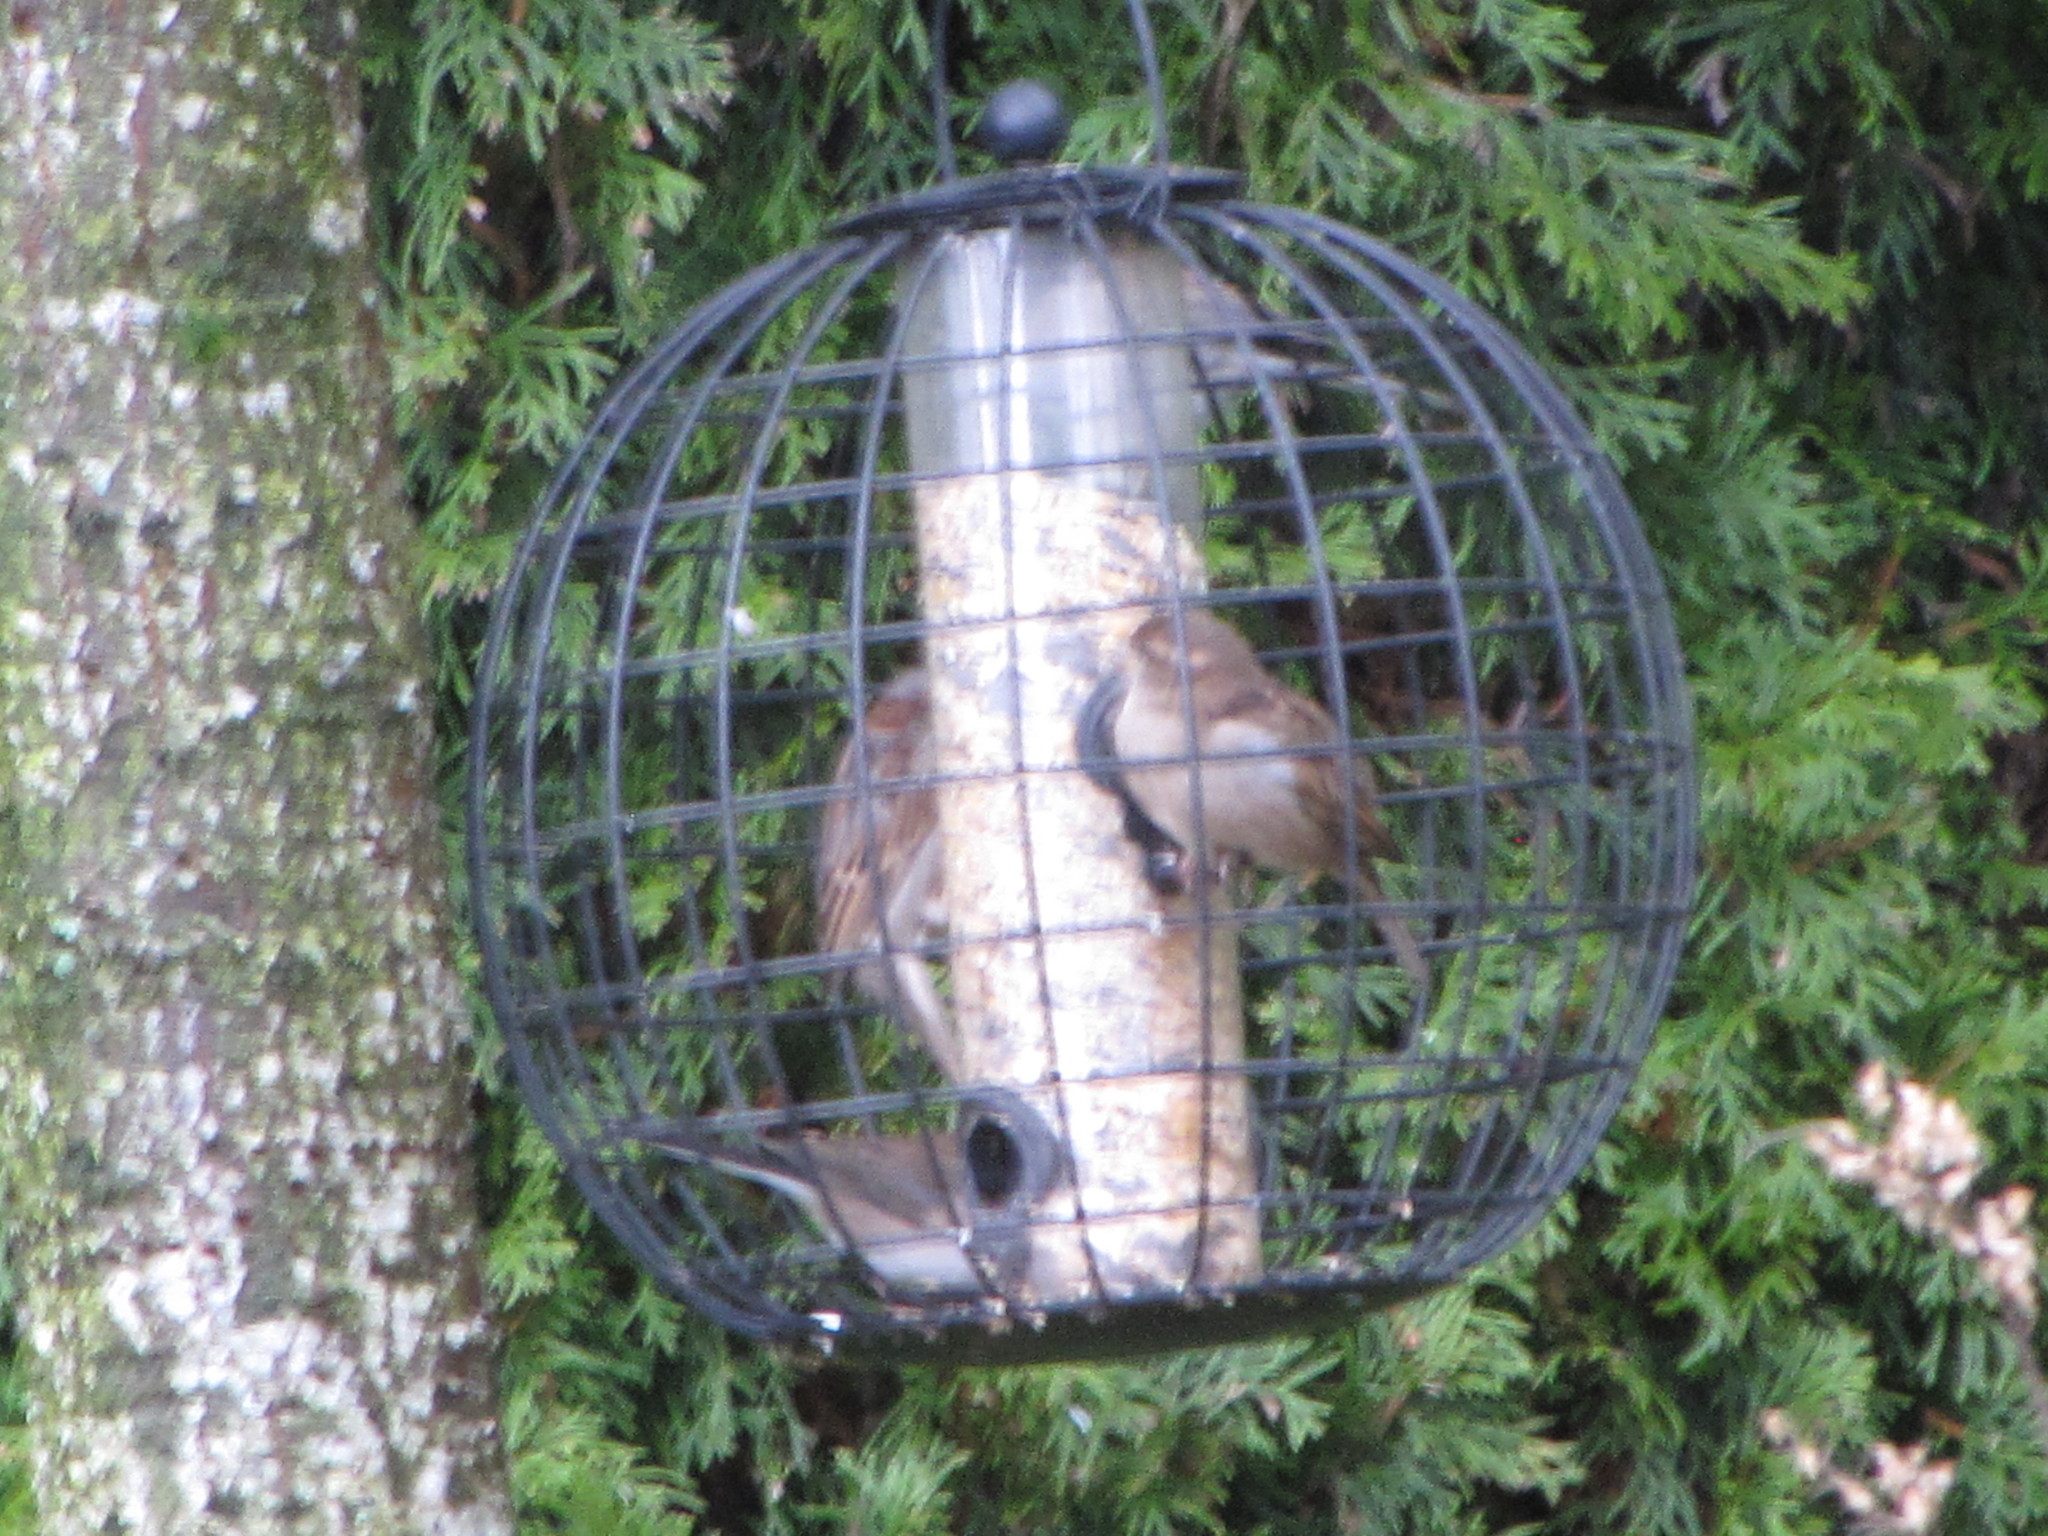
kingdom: Animalia
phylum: Chordata
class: Aves
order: Passeriformes
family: Passeridae
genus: Passer
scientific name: Passer domesticus
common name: House sparrow
